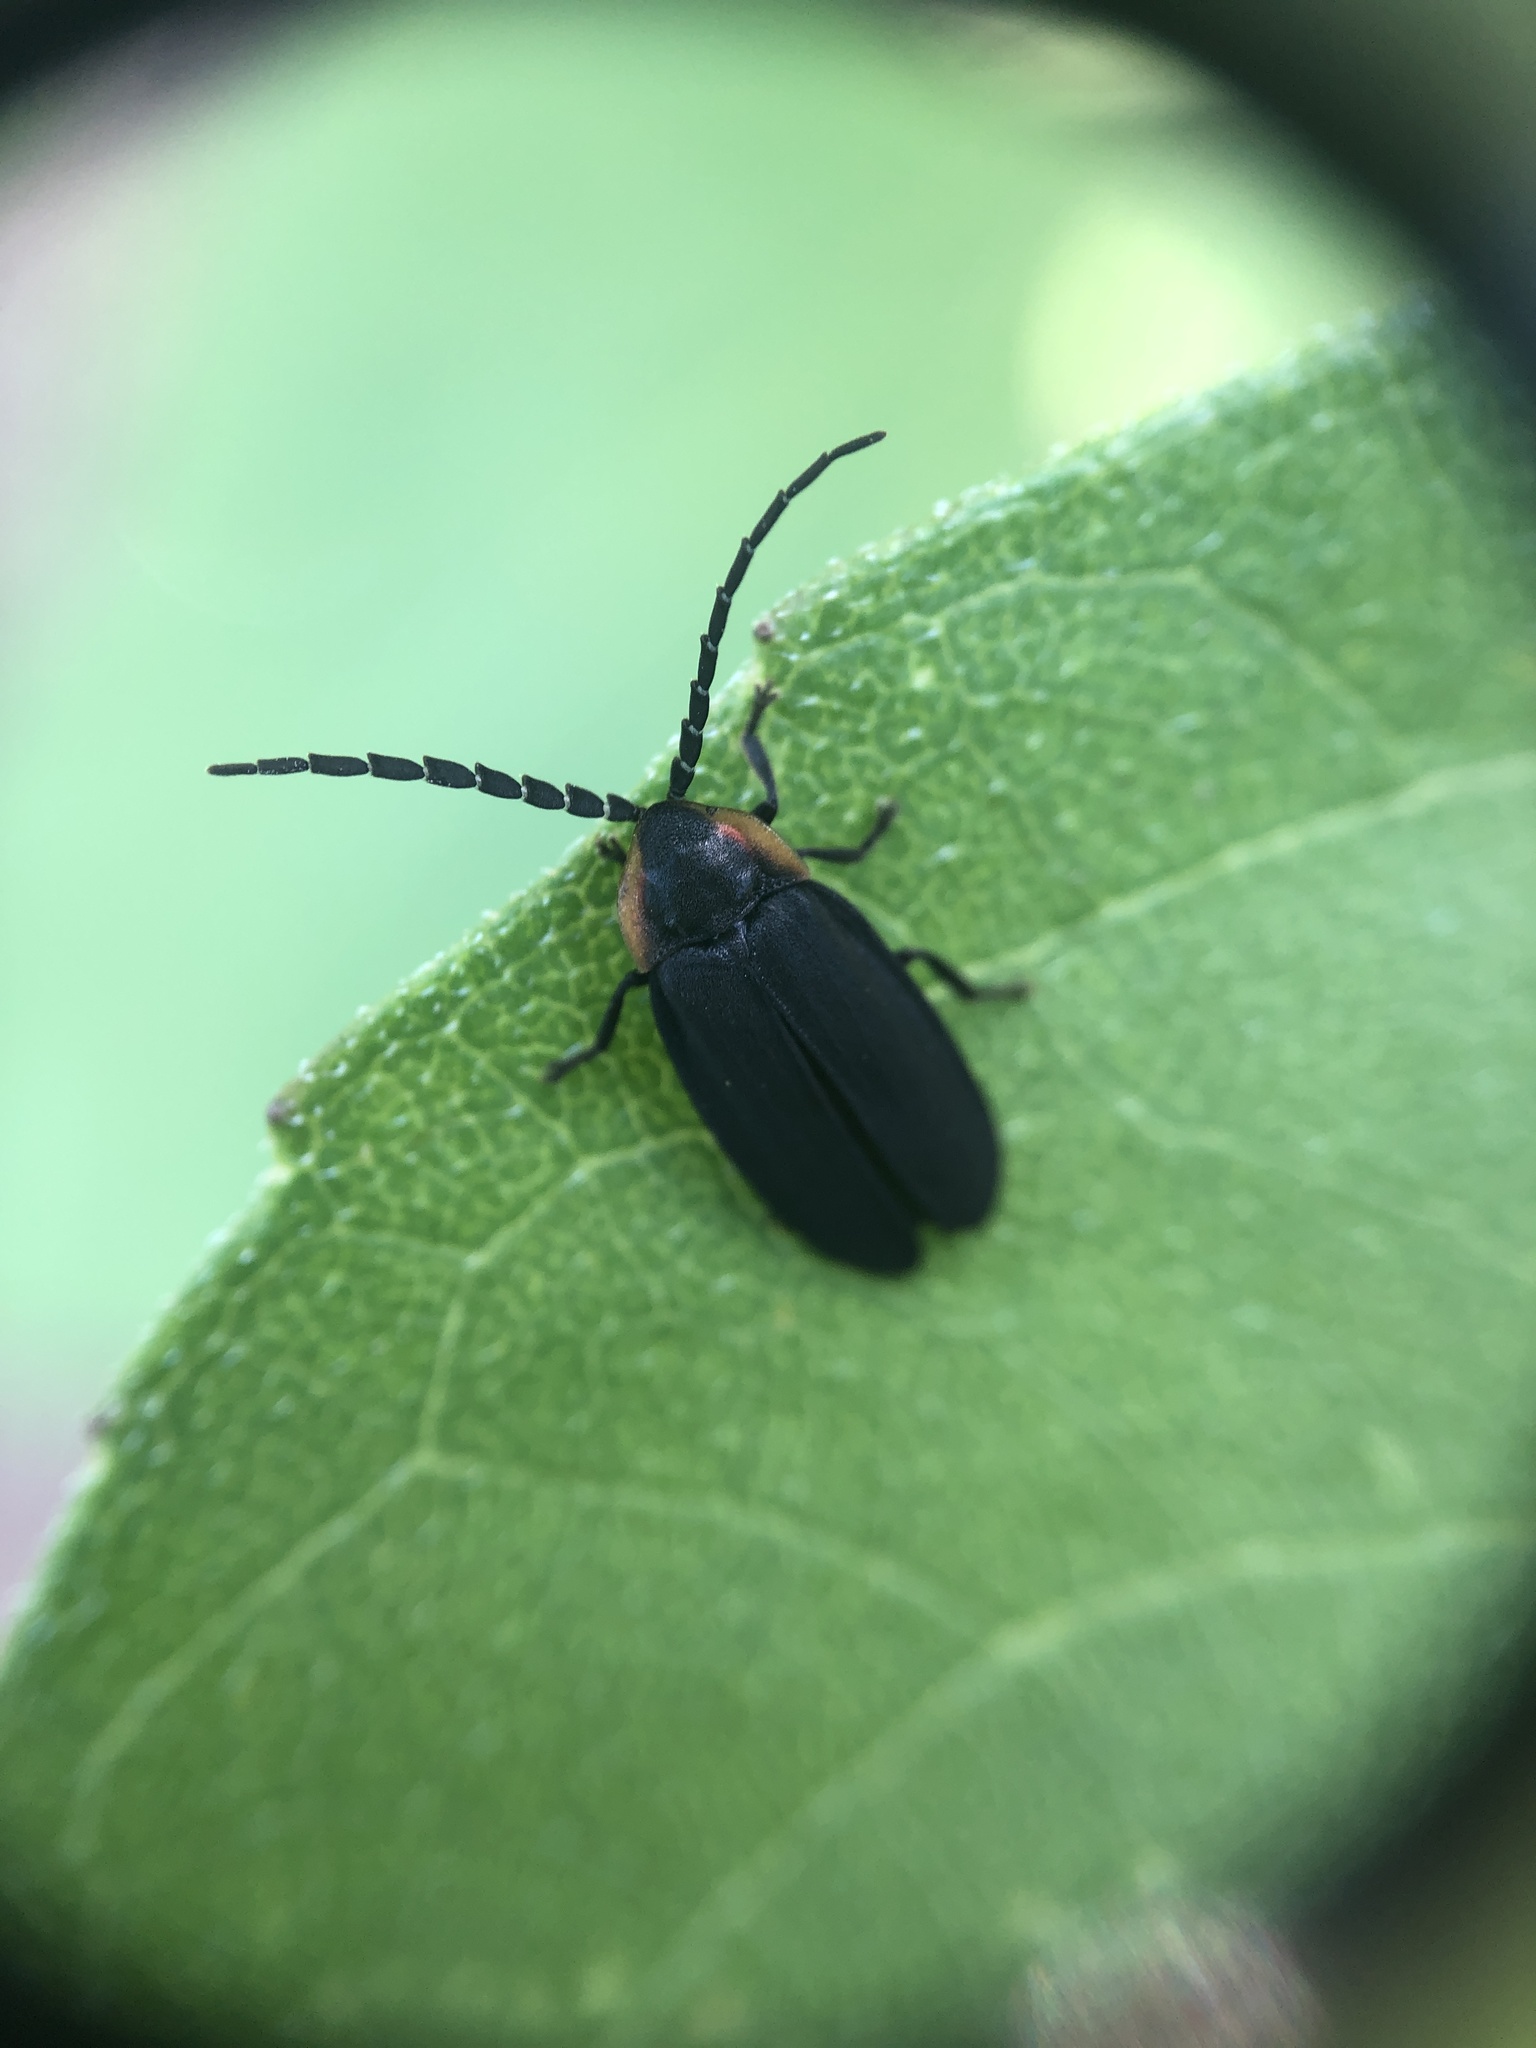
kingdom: Animalia
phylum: Arthropoda
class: Insecta
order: Coleoptera
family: Lampyridae
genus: Lucidota
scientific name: Lucidota atra
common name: Black firefly
